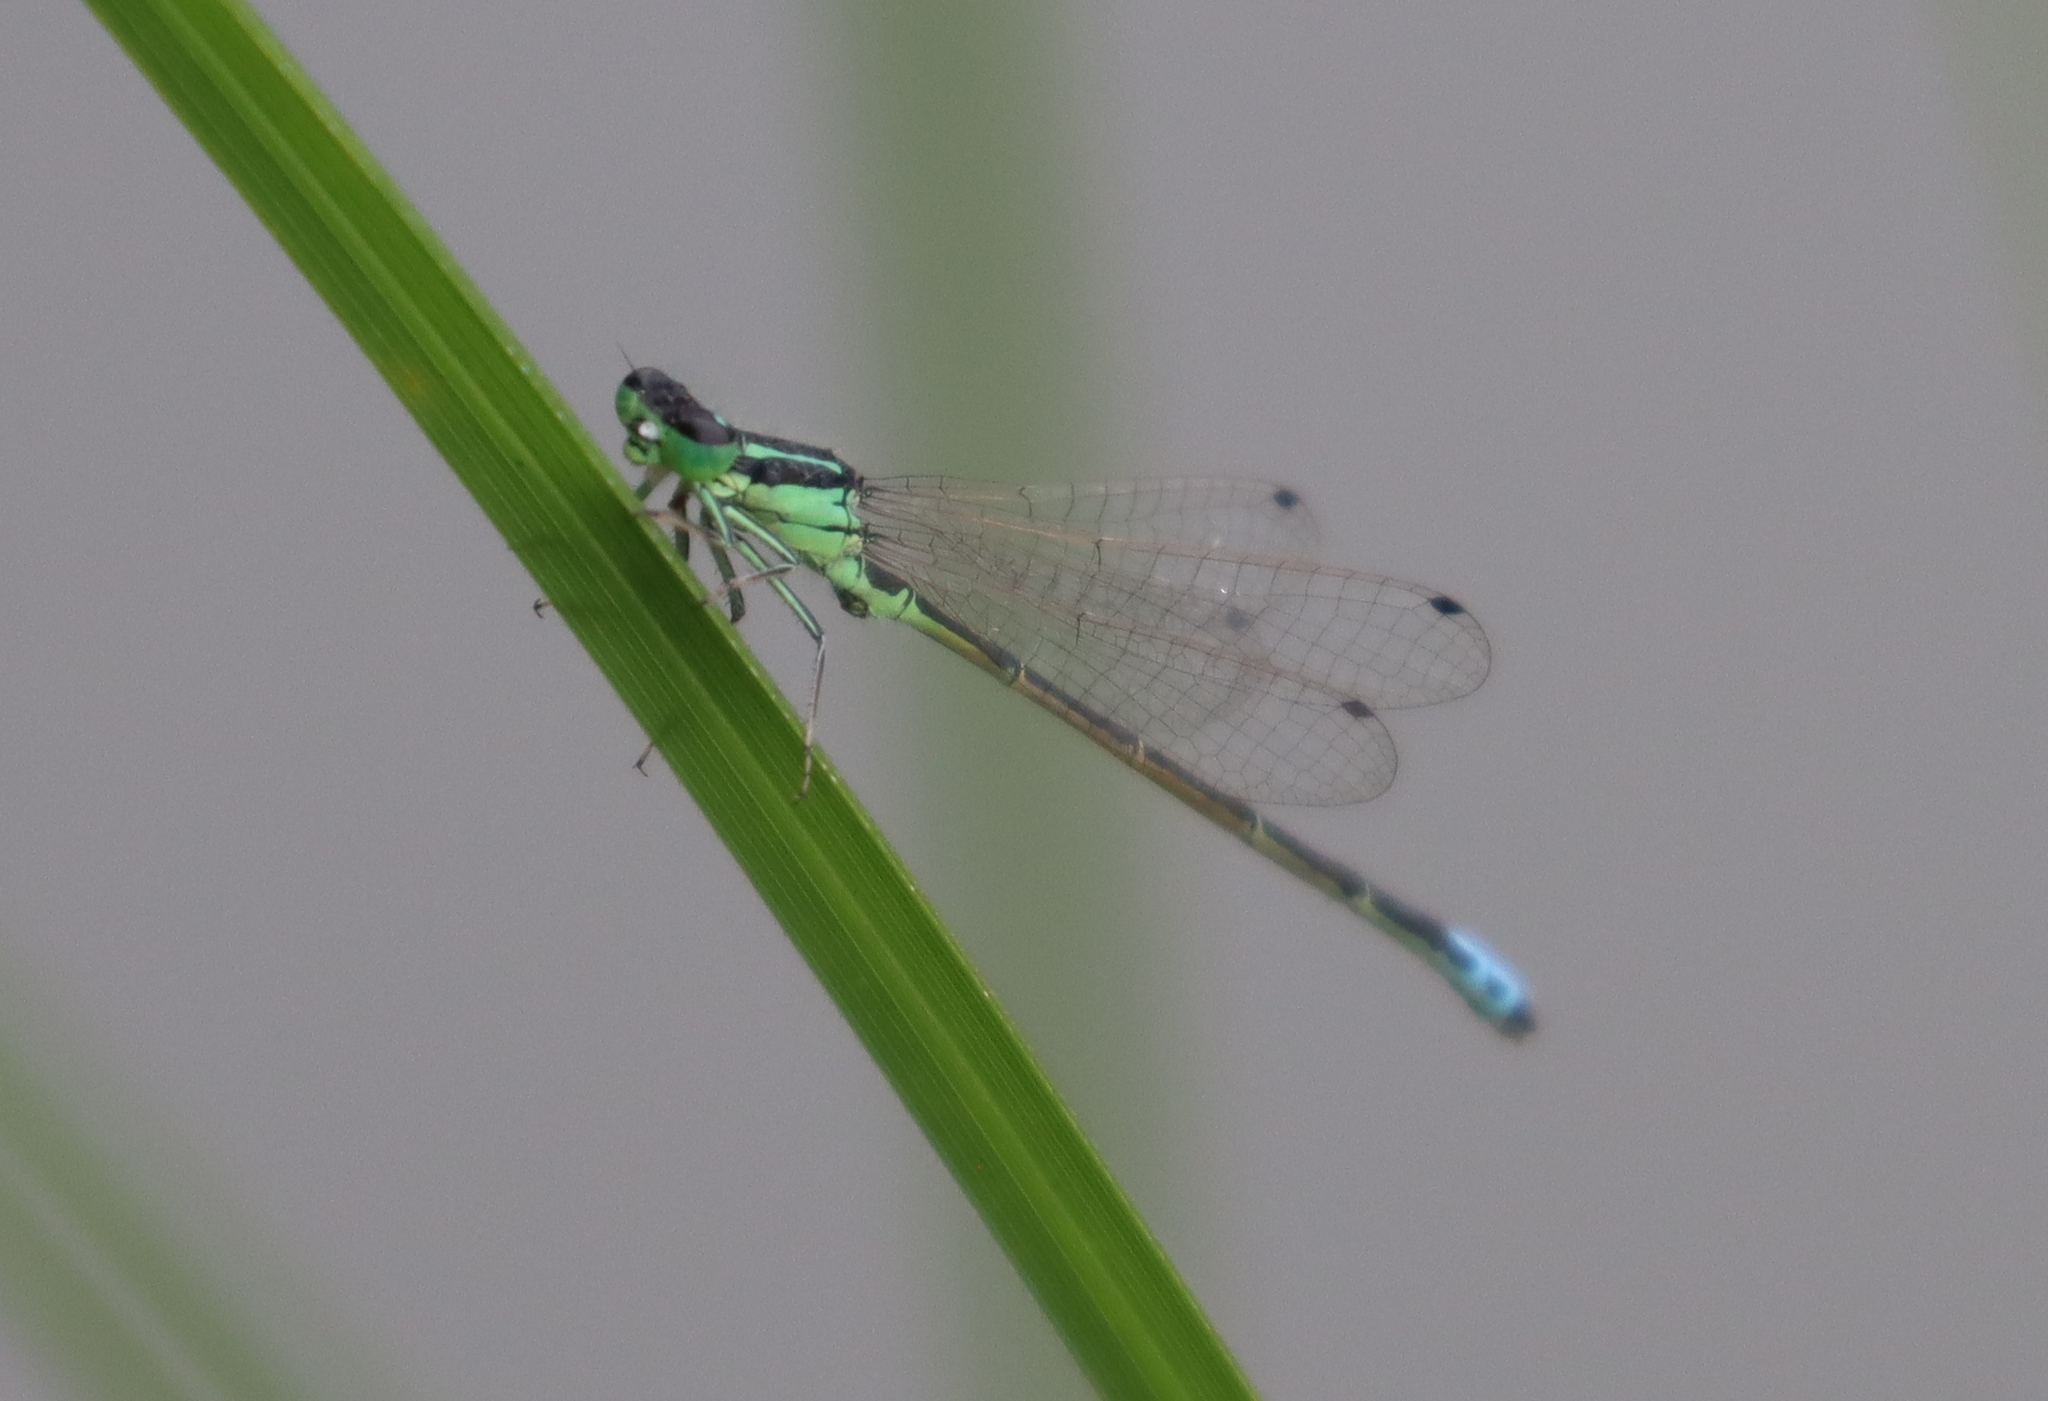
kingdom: Animalia
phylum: Arthropoda
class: Insecta
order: Odonata
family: Coenagrionidae
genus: Ischnura
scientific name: Ischnura verticalis
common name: Eastern forktail
